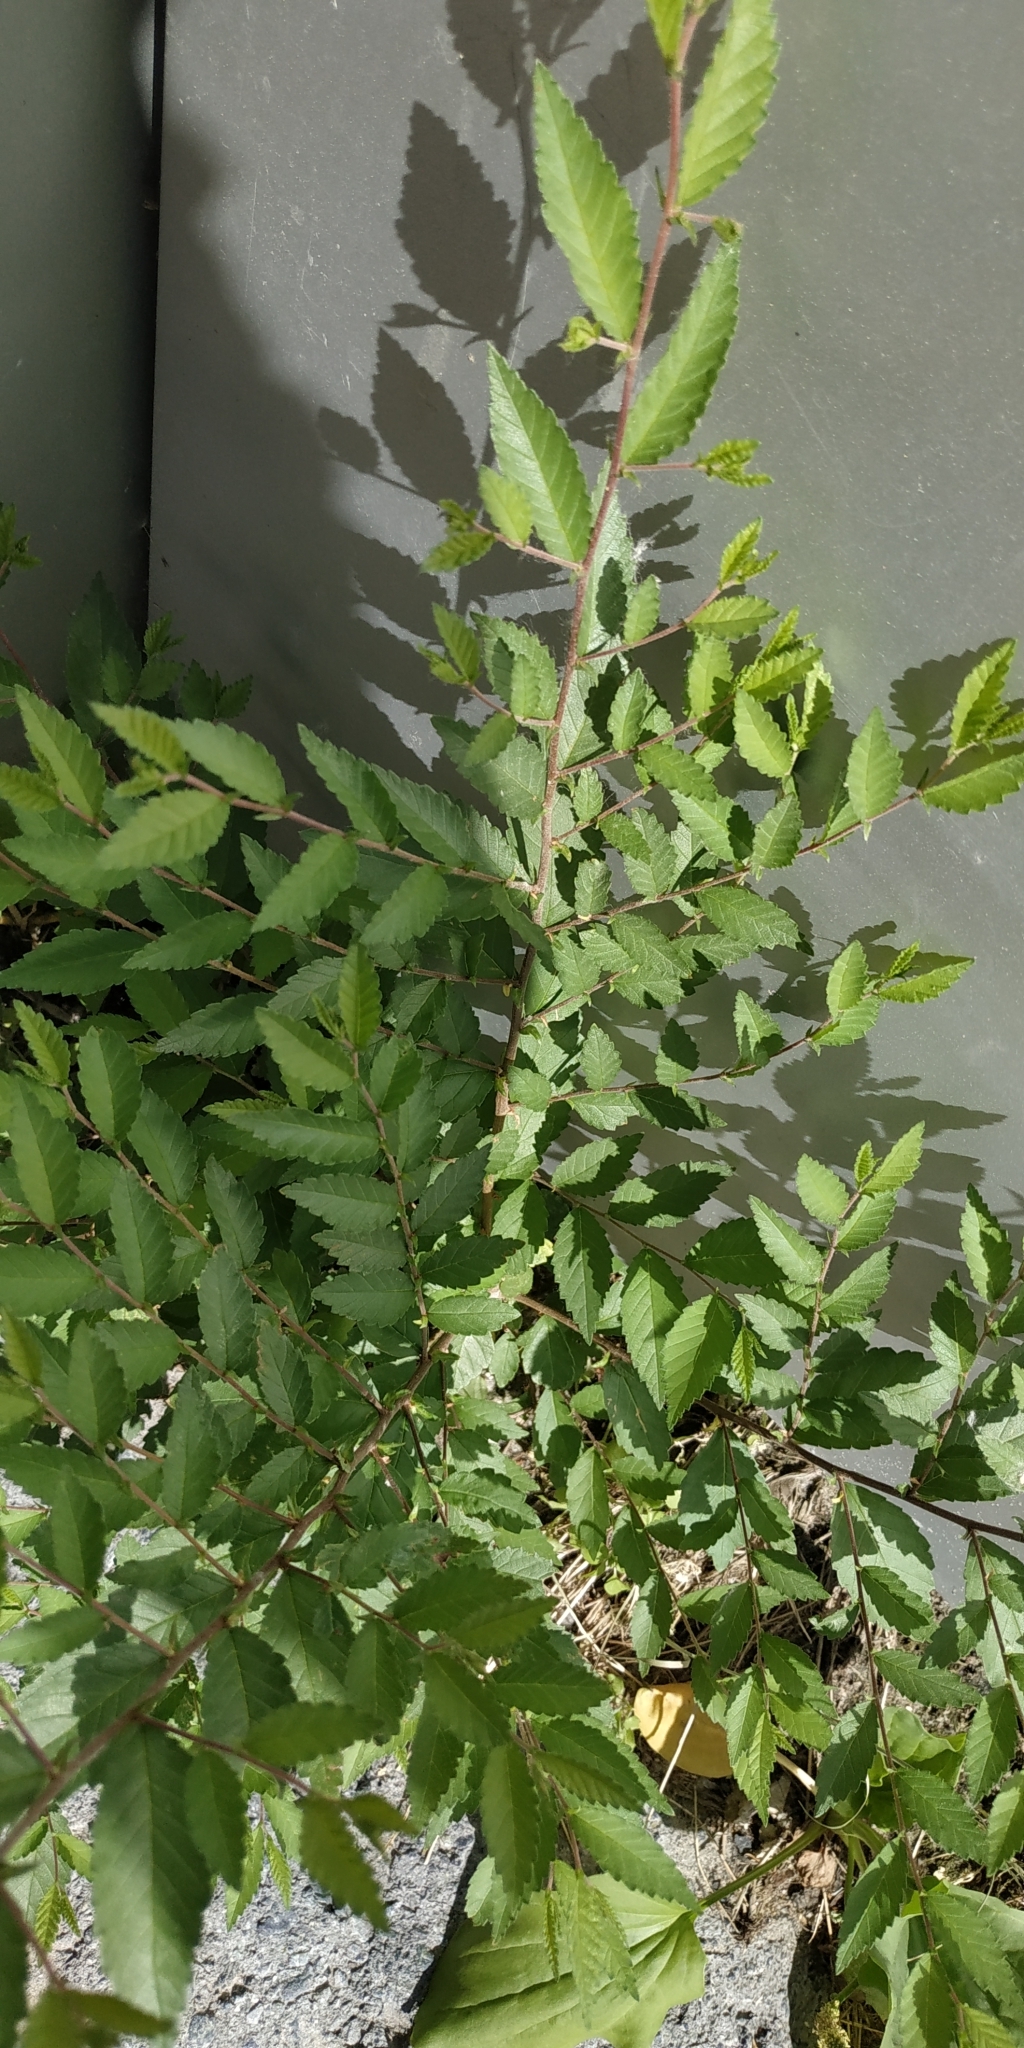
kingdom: Plantae
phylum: Tracheophyta
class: Magnoliopsida
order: Rosales
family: Ulmaceae
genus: Ulmus
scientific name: Ulmus pumila
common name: Siberian elm
